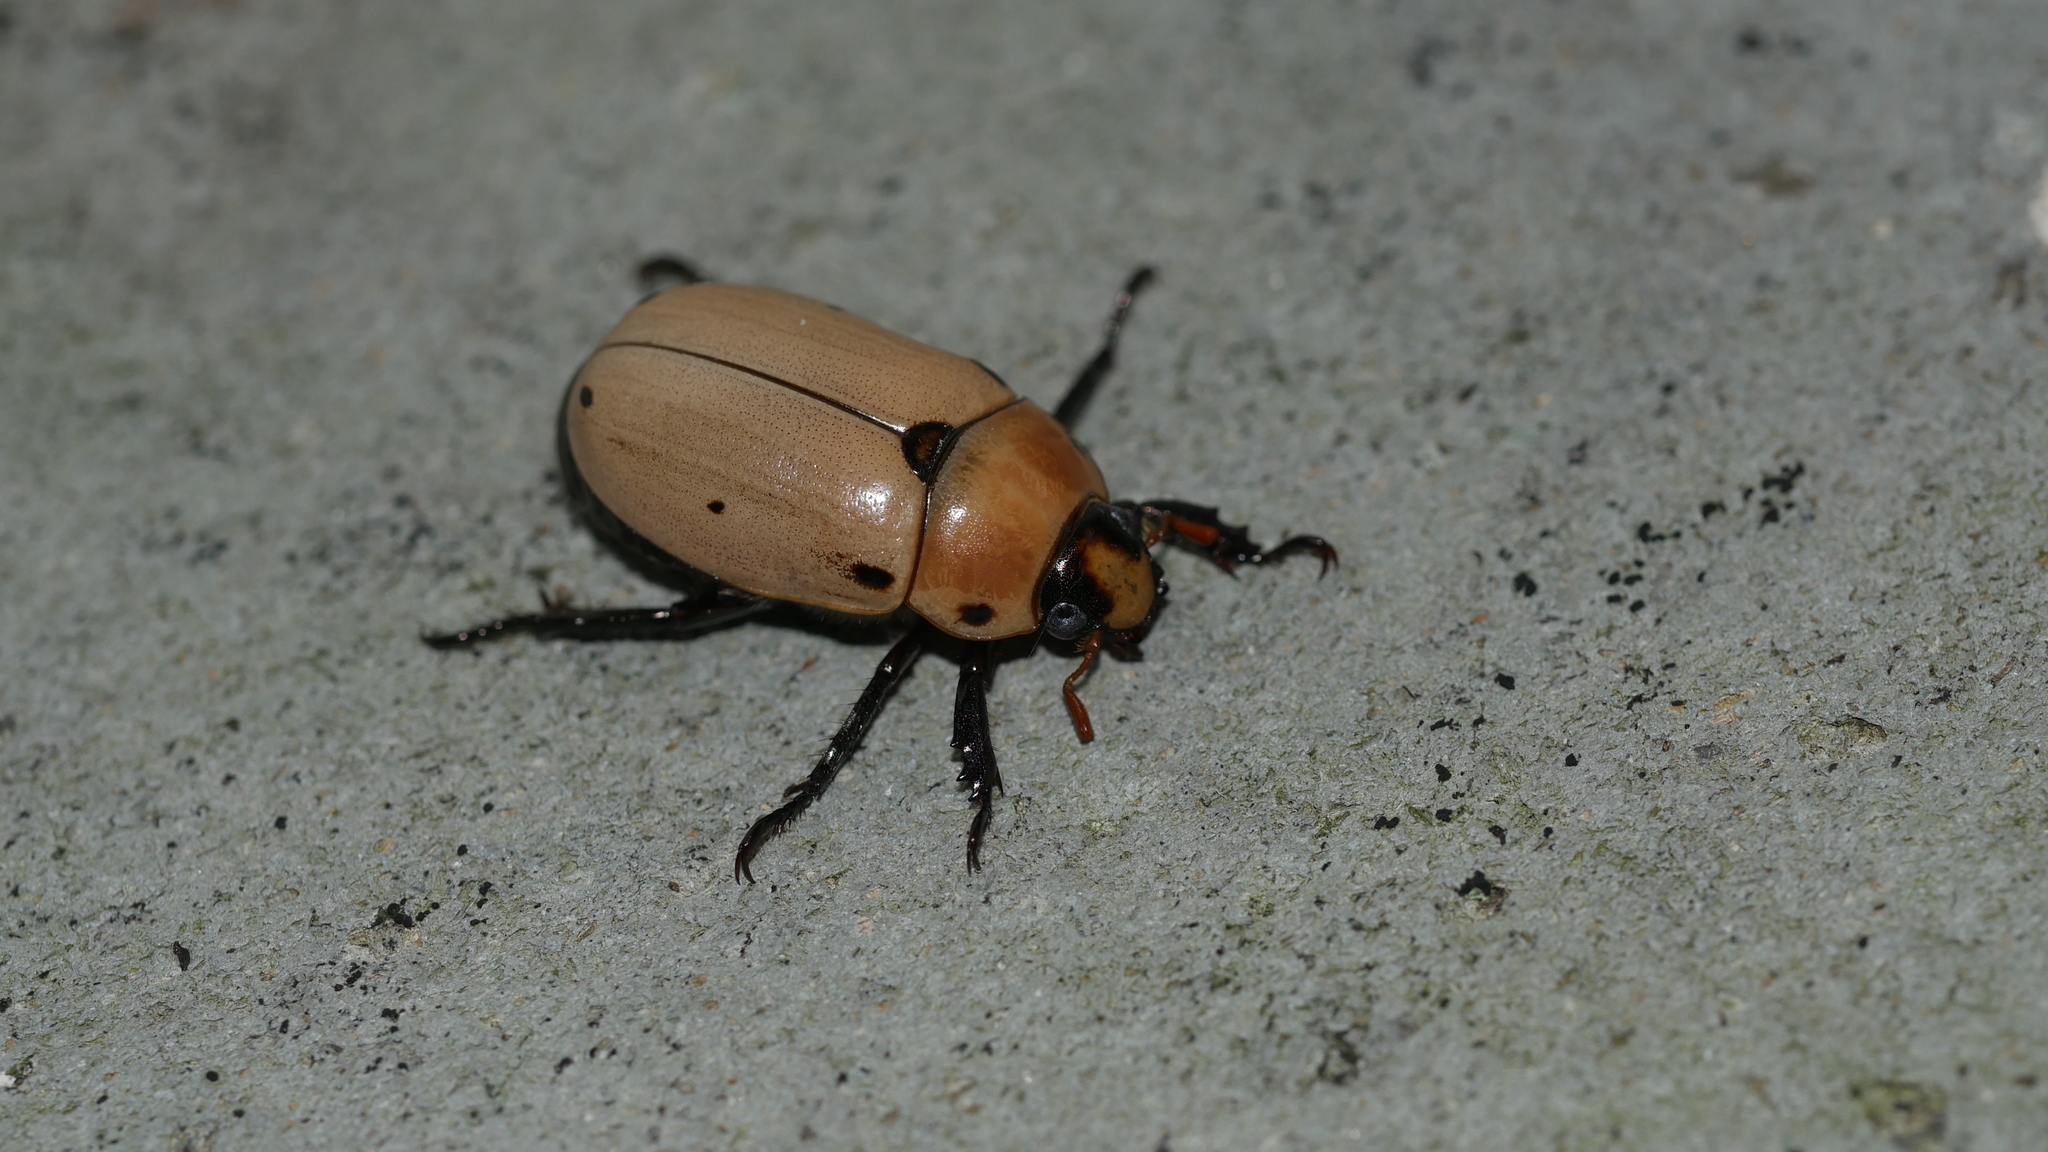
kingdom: Animalia
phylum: Arthropoda
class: Insecta
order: Coleoptera
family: Scarabaeidae
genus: Pelidnota
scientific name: Pelidnota punctata
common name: Grapevine beetle
